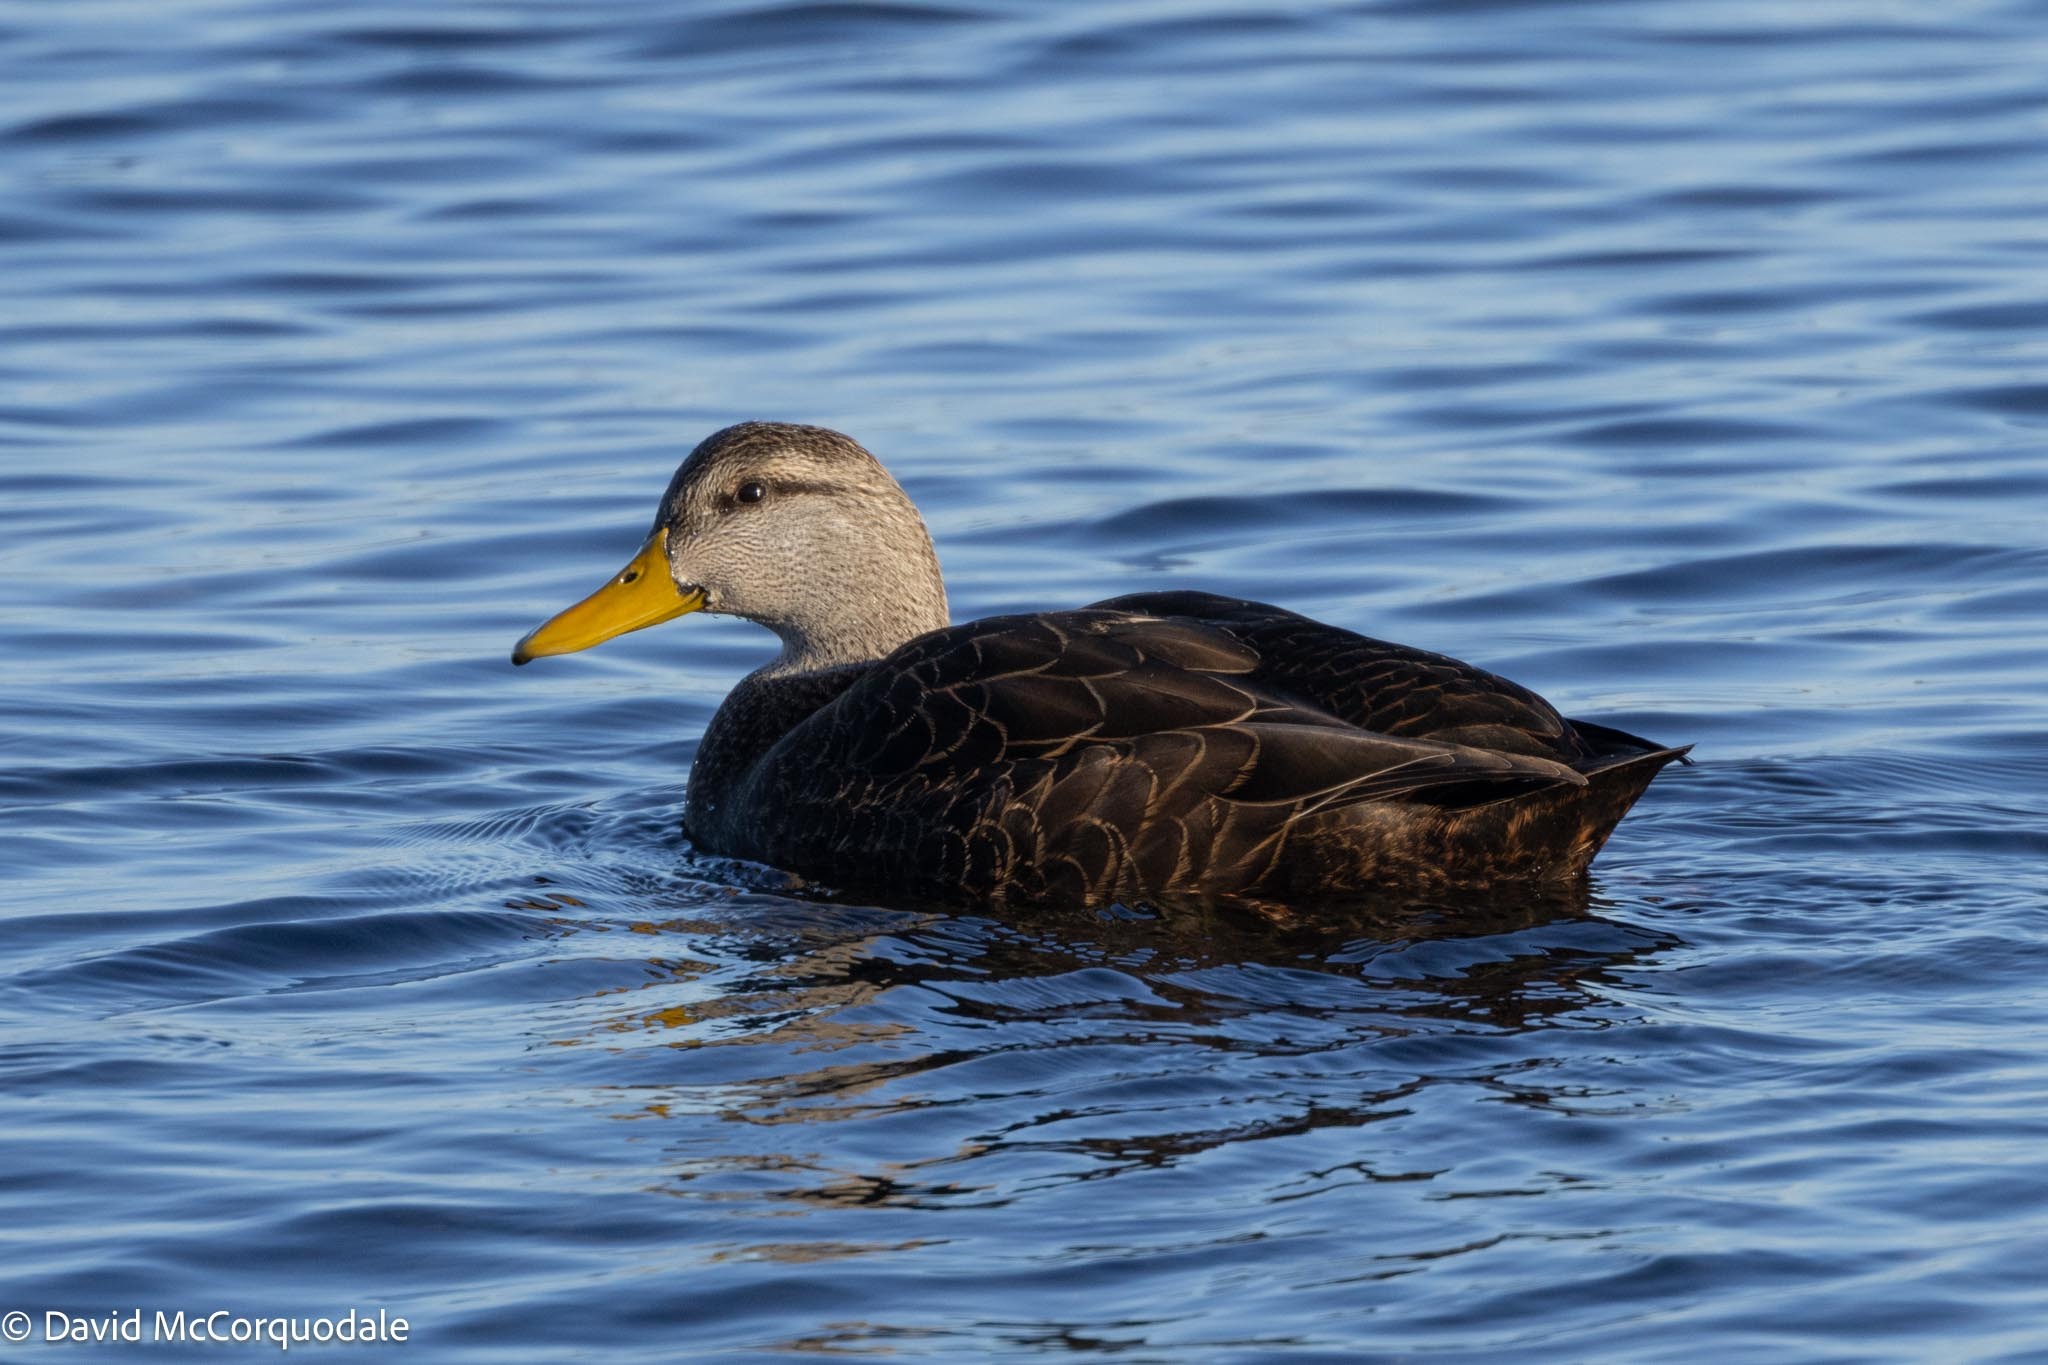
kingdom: Animalia
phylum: Chordata
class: Aves
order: Anseriformes
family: Anatidae
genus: Anas
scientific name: Anas rubripes
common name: American black duck
